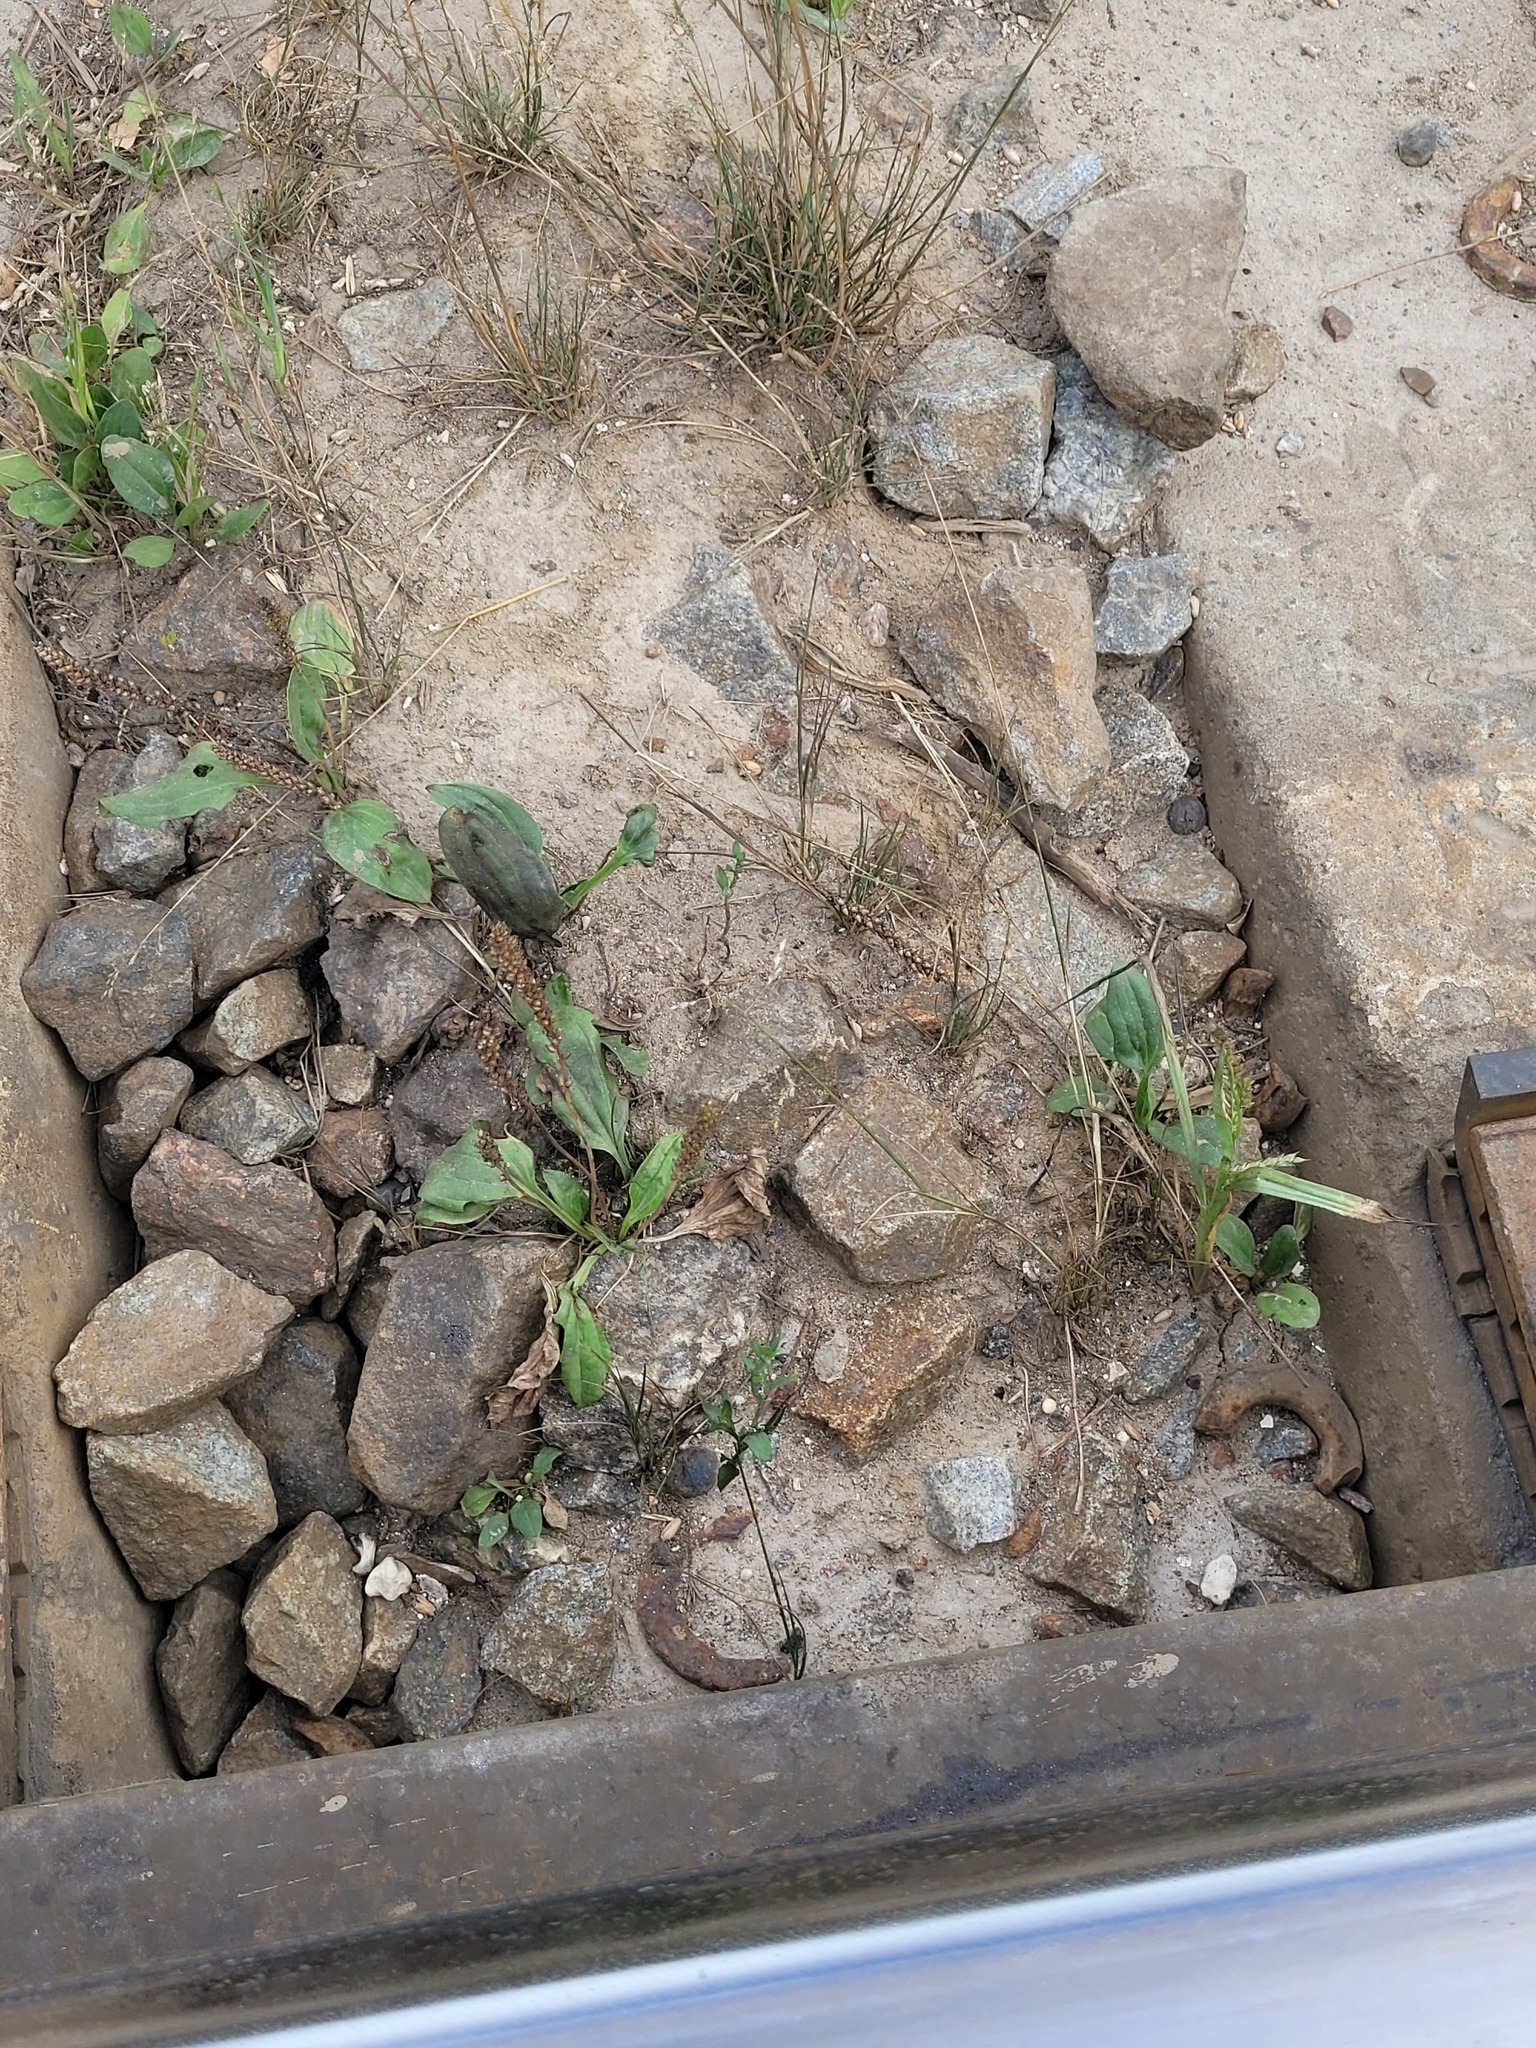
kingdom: Plantae
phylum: Tracheophyta
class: Magnoliopsida
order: Lamiales
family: Plantaginaceae
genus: Plantago
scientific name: Plantago major
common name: Common plantain
